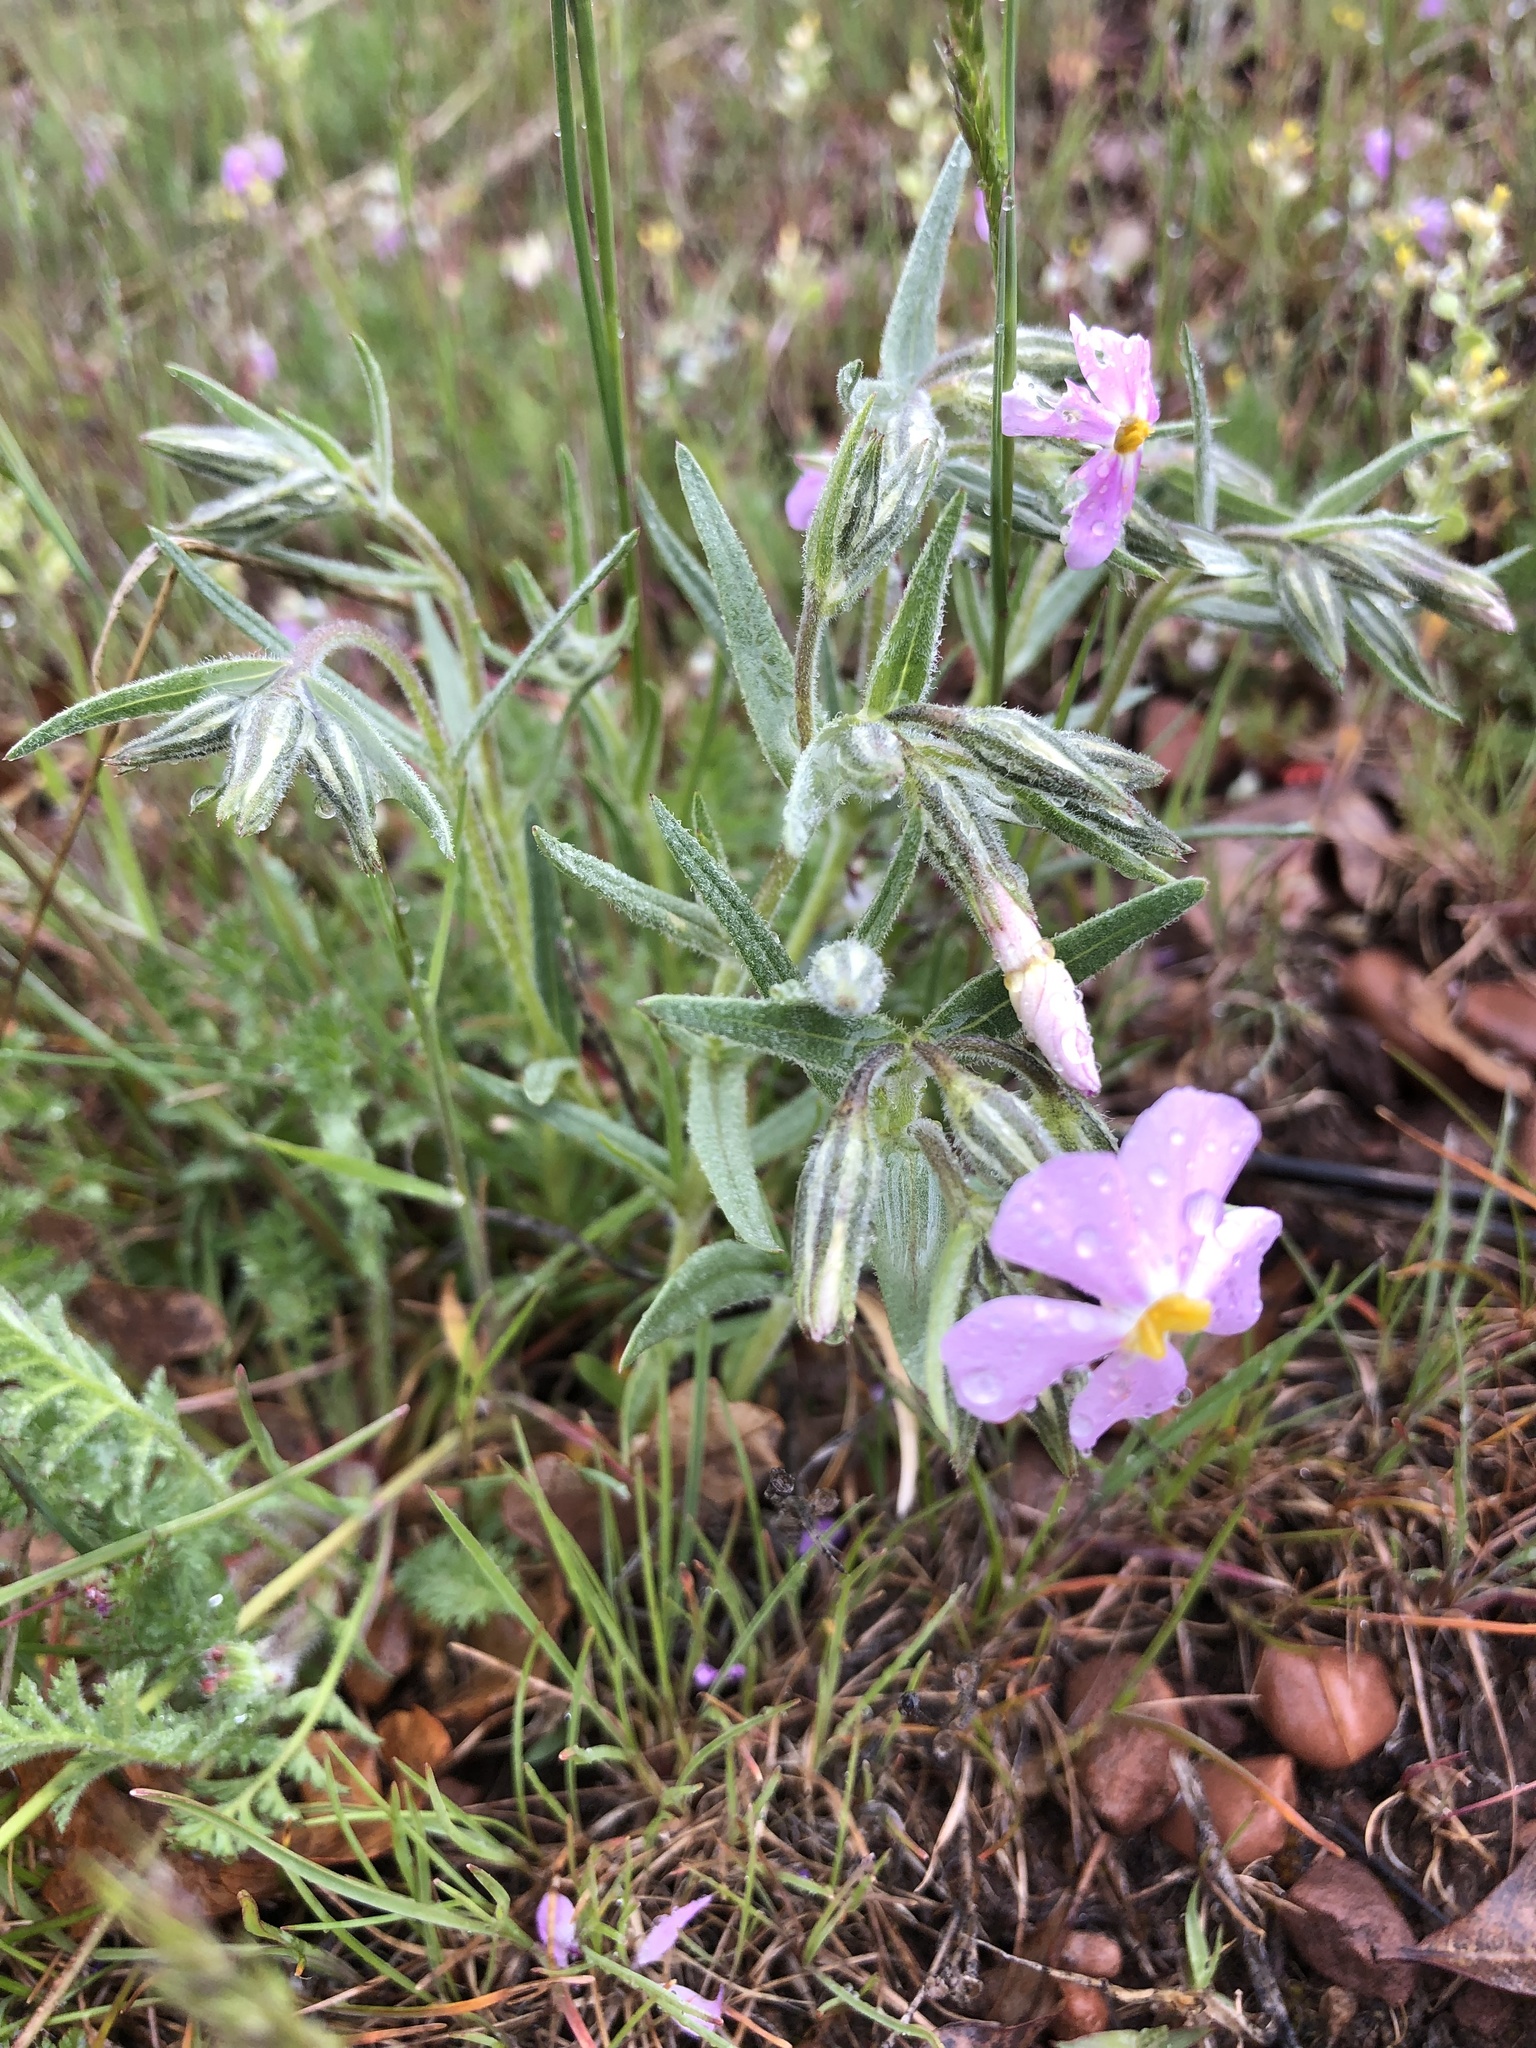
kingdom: Plantae
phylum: Tracheophyta
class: Magnoliopsida
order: Ericales
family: Polemoniaceae
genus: Phlox
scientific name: Phlox longifolia
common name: Longleaf phlox
